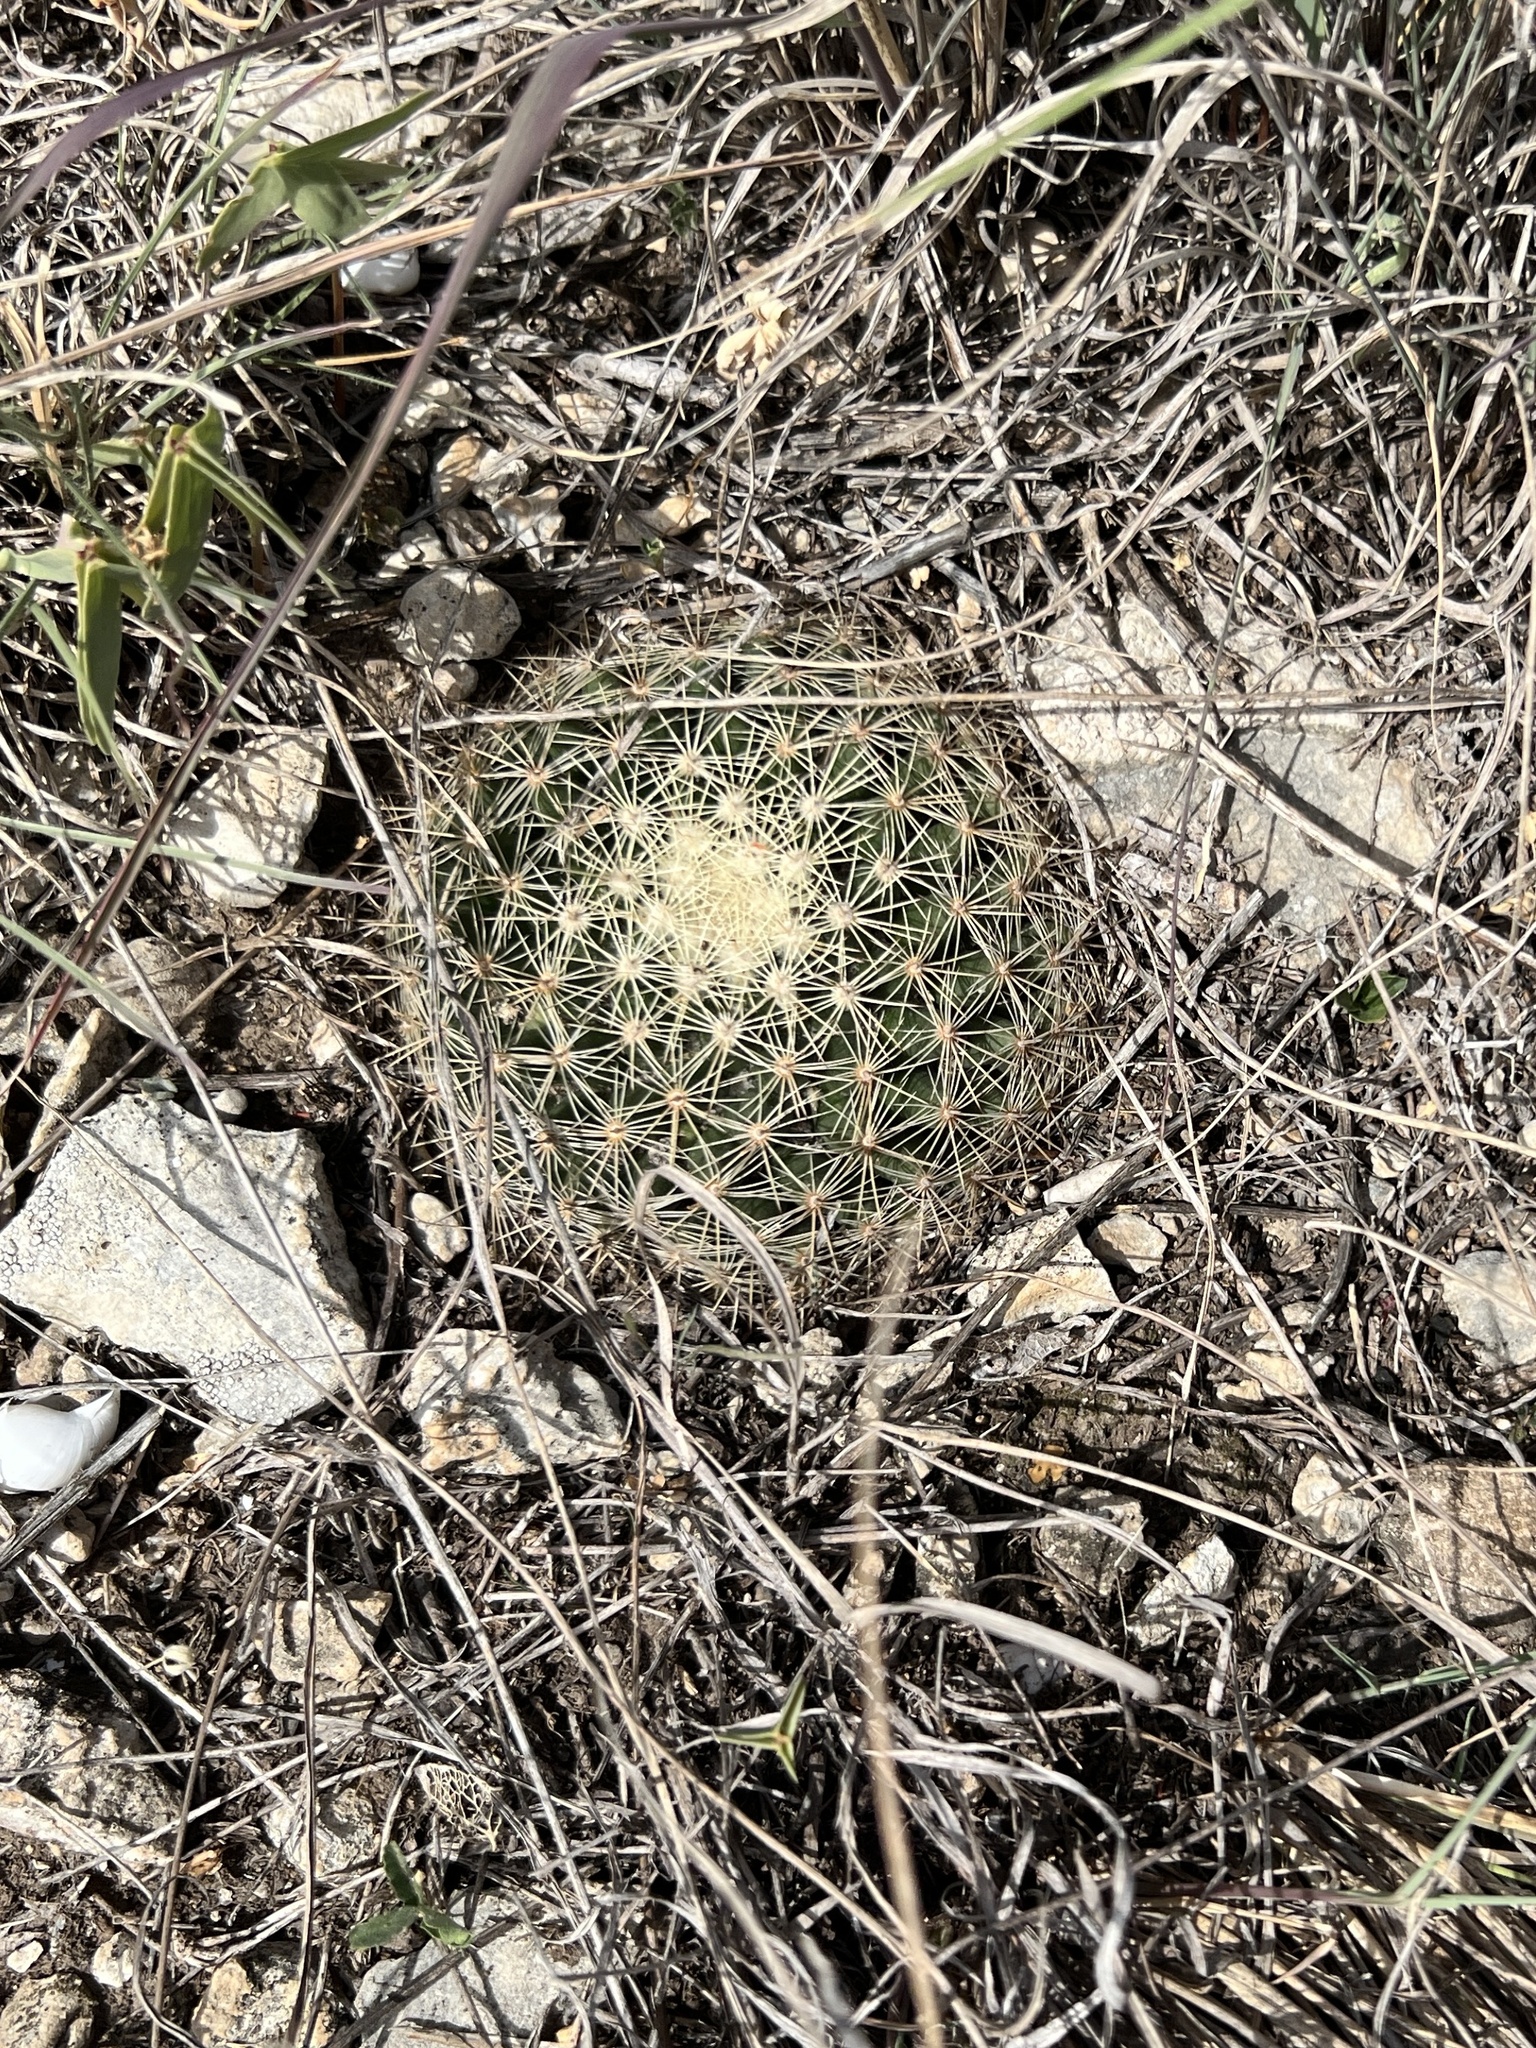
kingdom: Plantae
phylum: Tracheophyta
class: Magnoliopsida
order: Caryophyllales
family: Cactaceae
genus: Mammillaria
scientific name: Mammillaria heyderi
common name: Little nipple cactus
